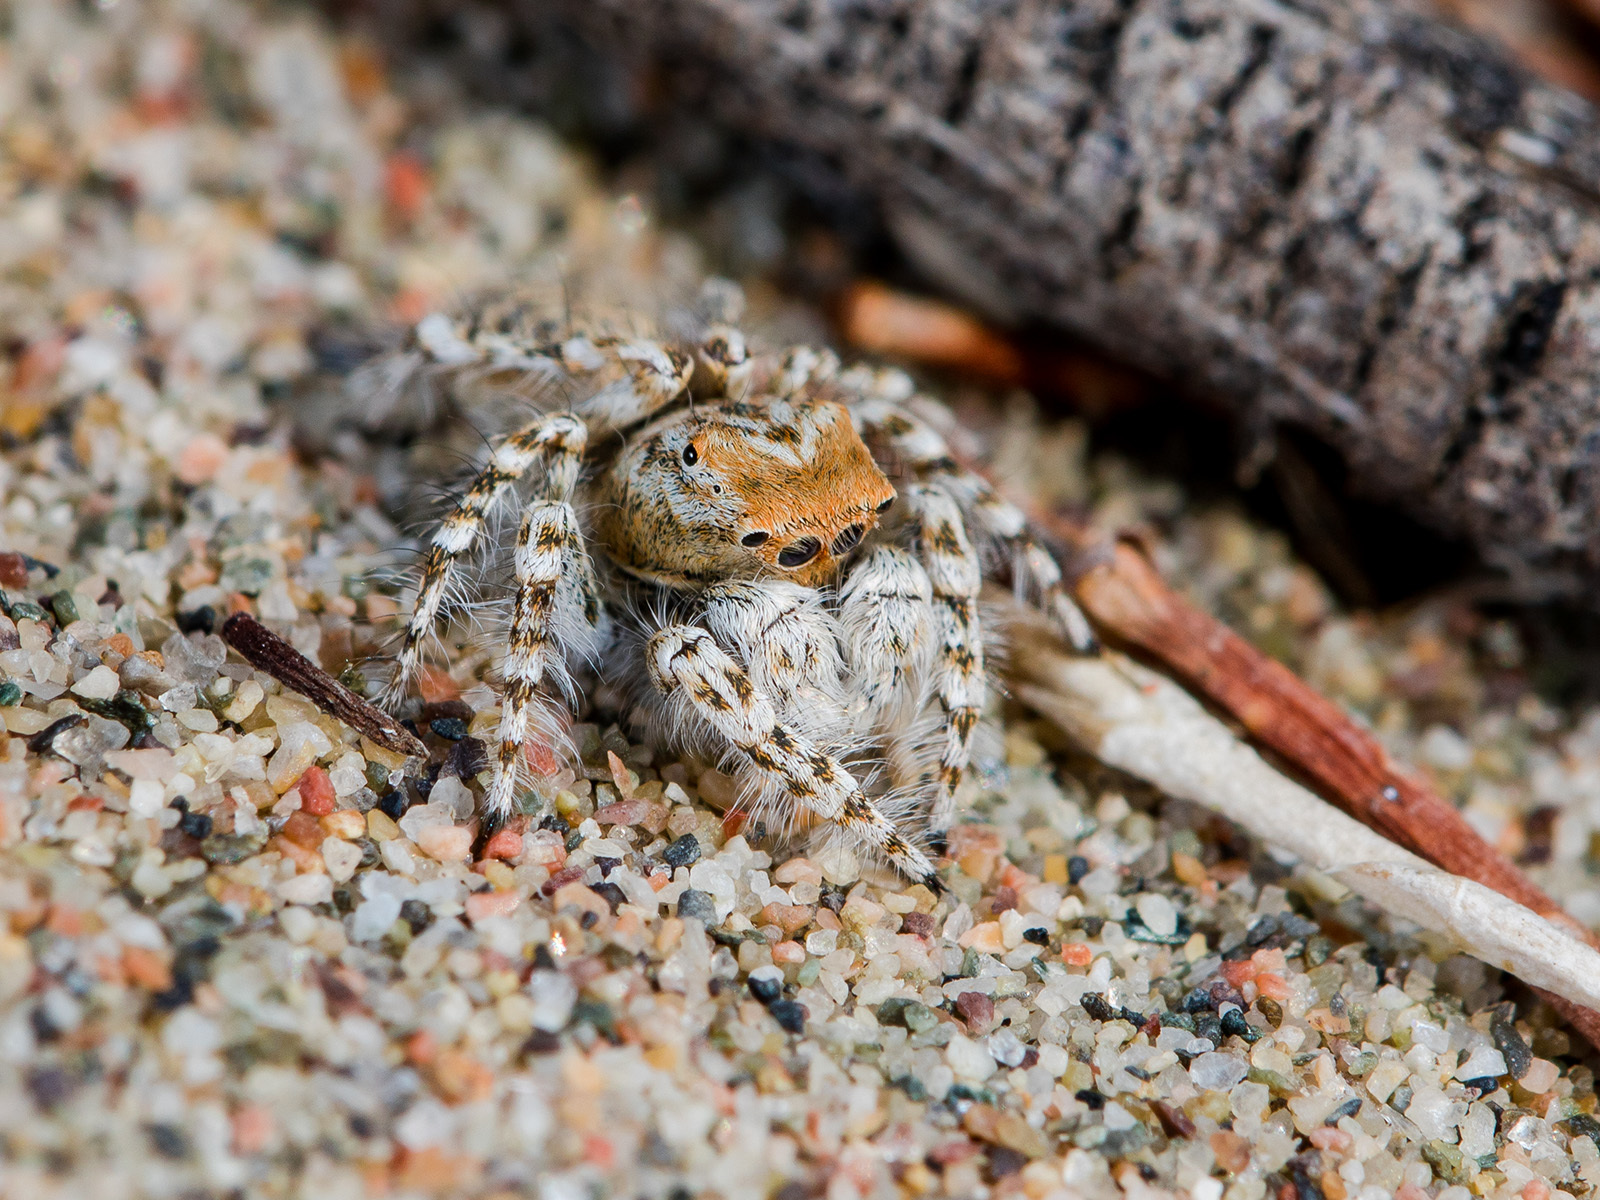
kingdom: Animalia
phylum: Arthropoda
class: Arachnida
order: Araneae
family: Salticidae
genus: Yllenus
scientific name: Yllenus uiguricus
